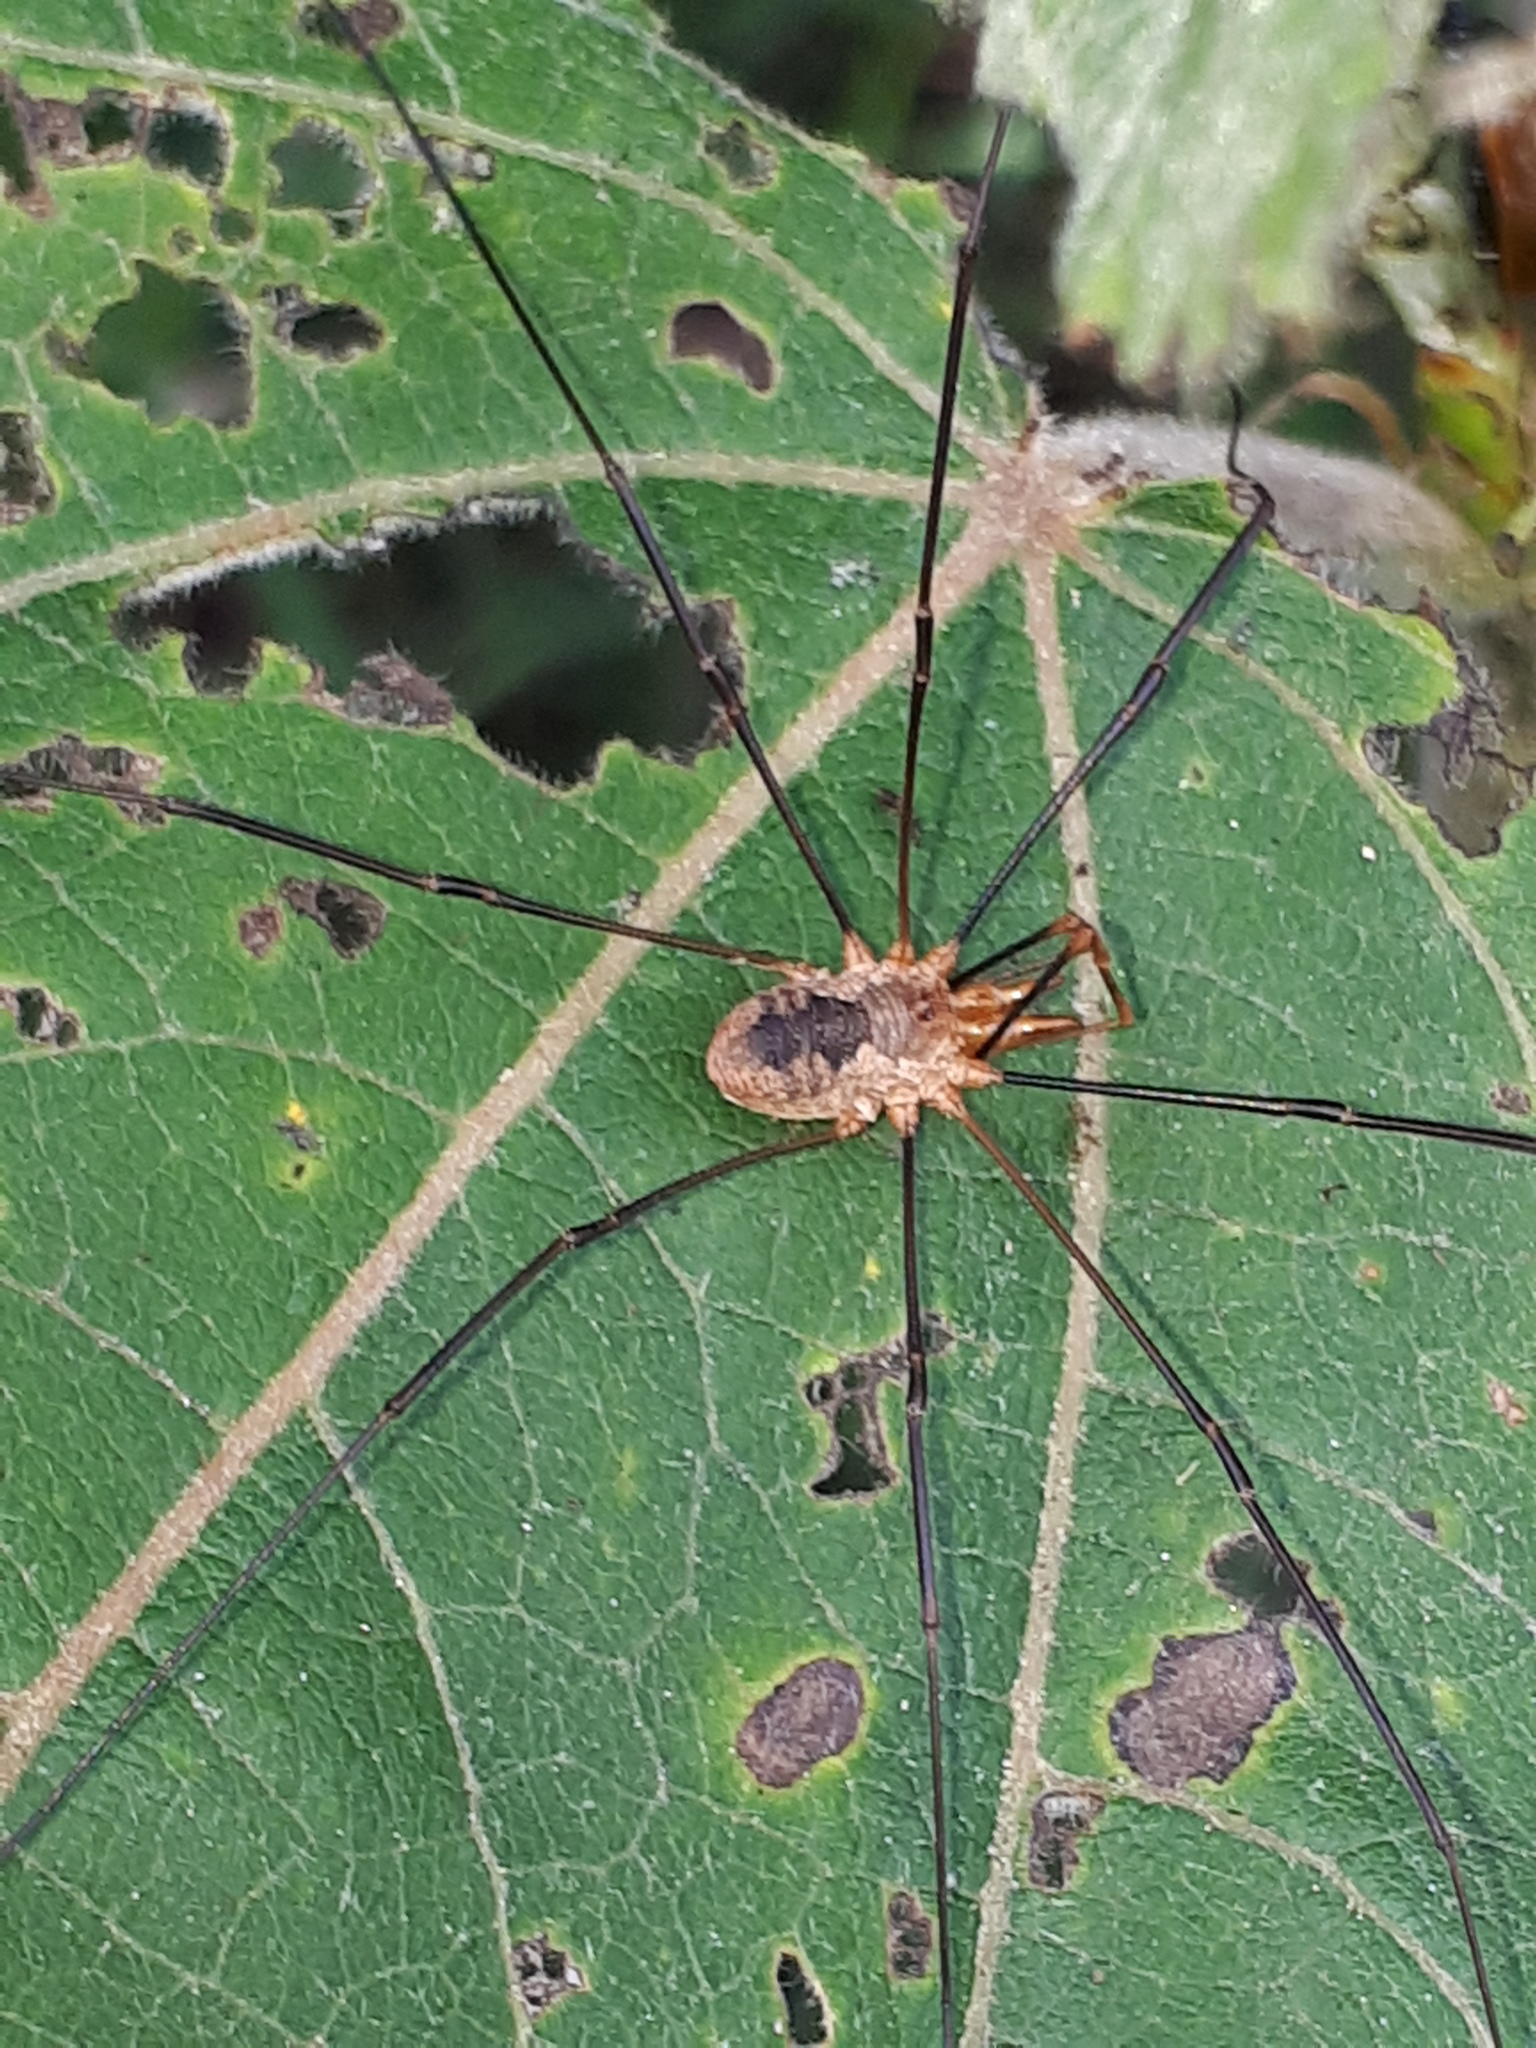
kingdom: Animalia
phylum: Arthropoda
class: Arachnida
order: Opiliones
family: Phalangiidae
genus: Phalangium
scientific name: Phalangium opilio
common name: Daddy longleg
